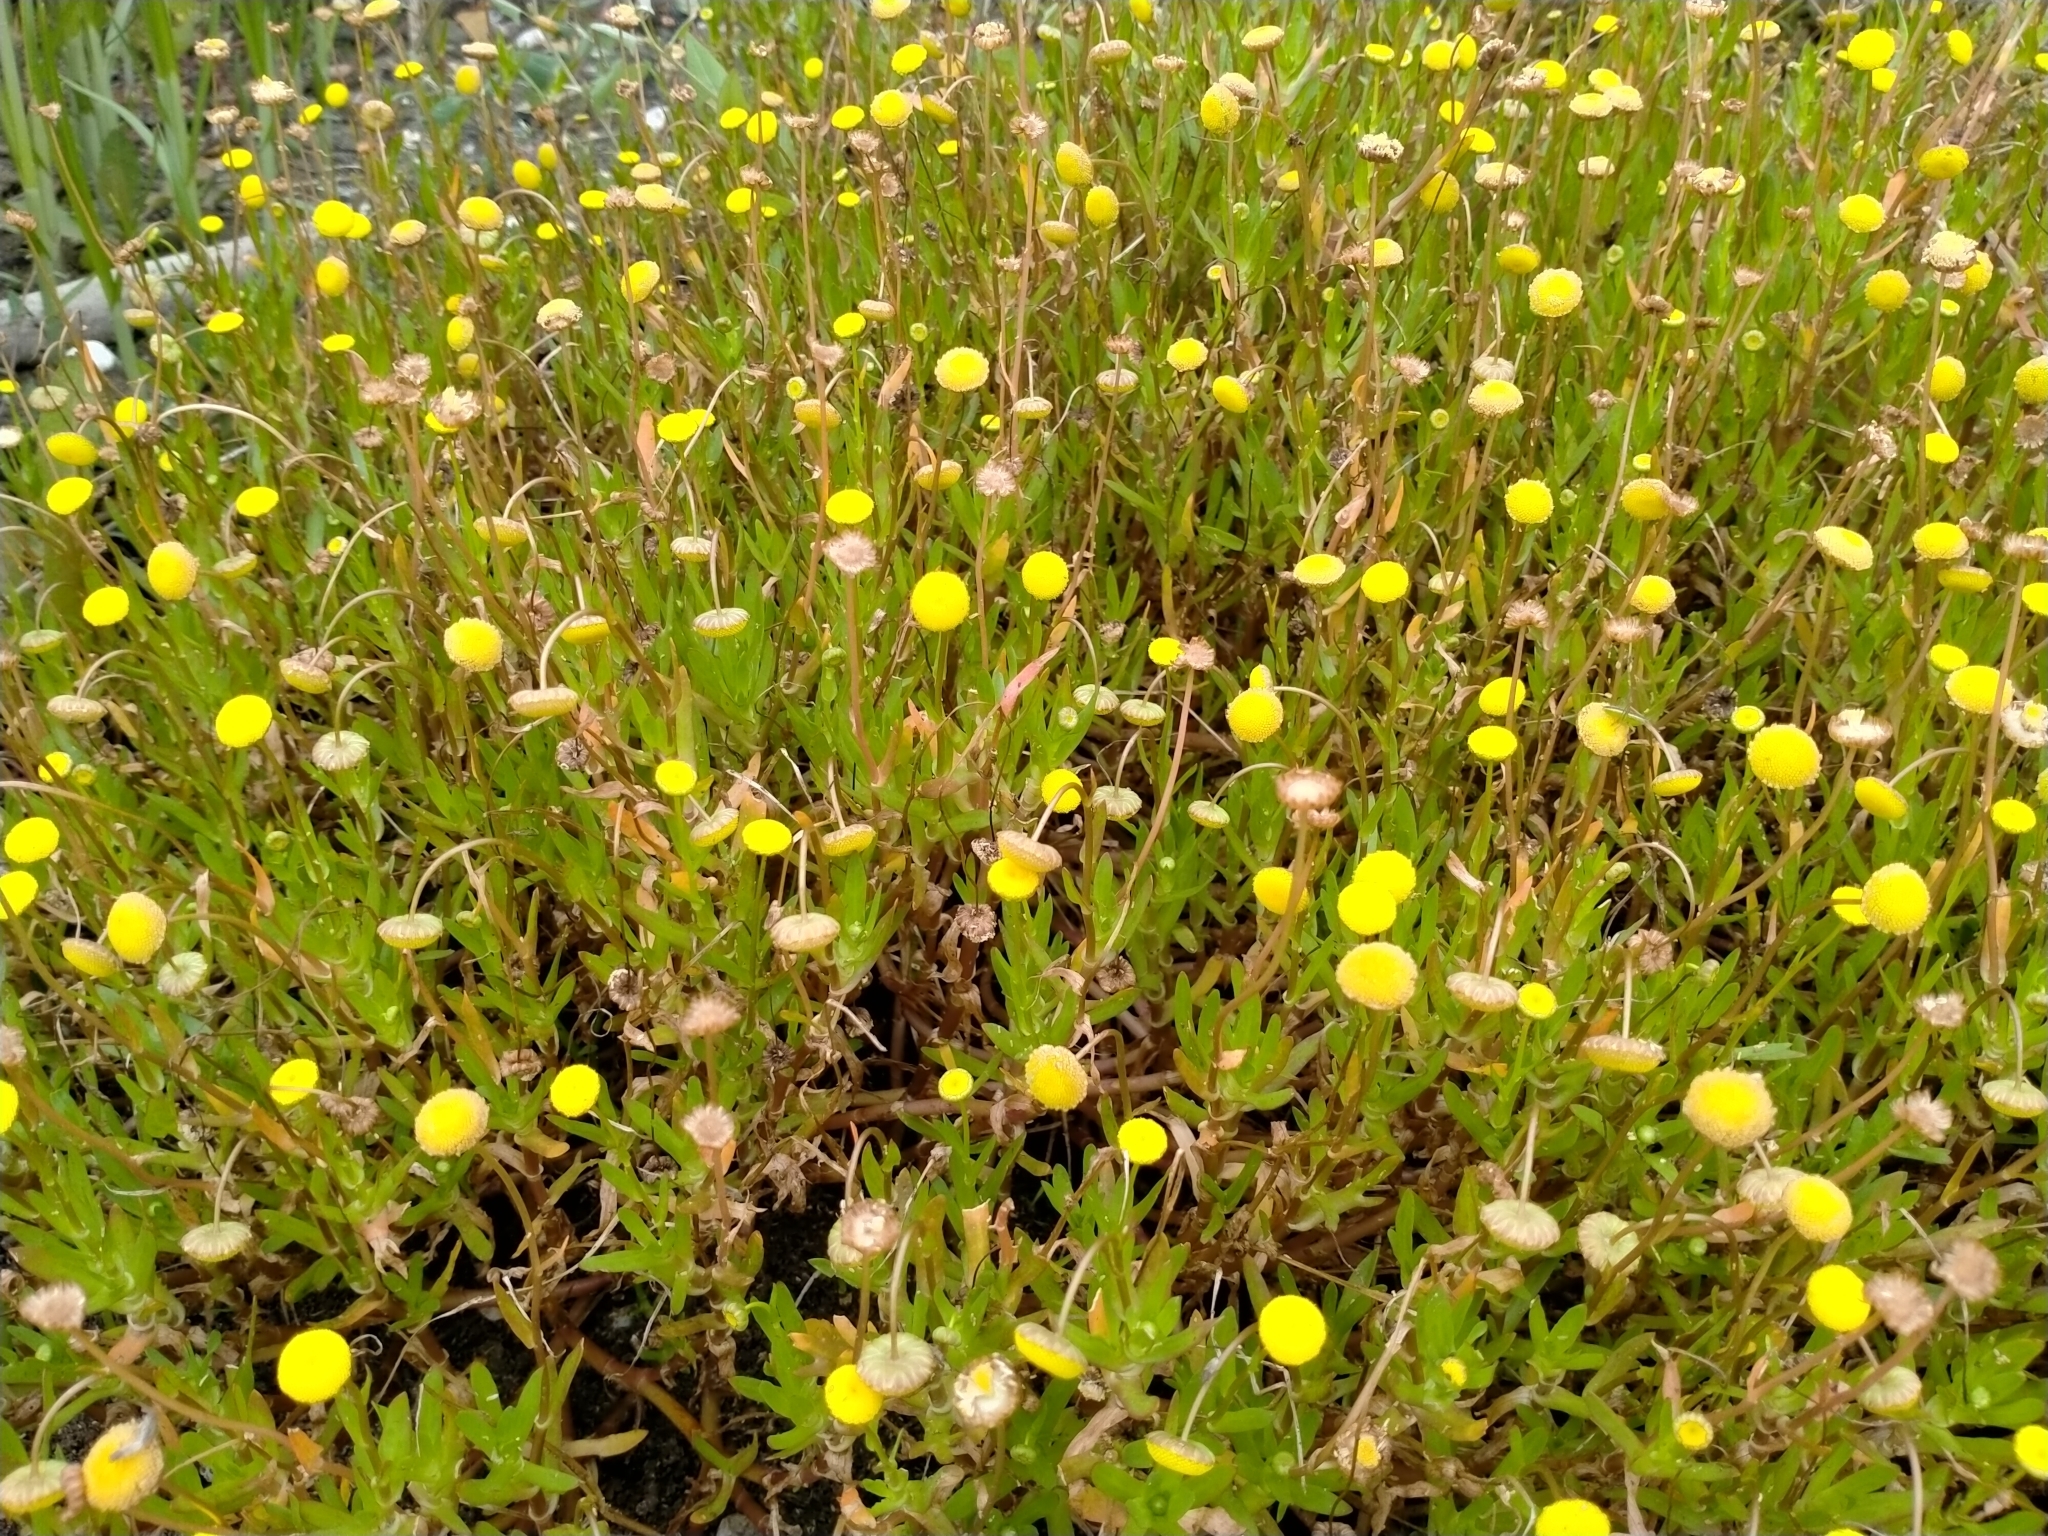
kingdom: Plantae
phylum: Tracheophyta
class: Magnoliopsida
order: Asterales
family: Asteraceae
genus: Cotula
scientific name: Cotula coronopifolia
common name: Buttonweed
